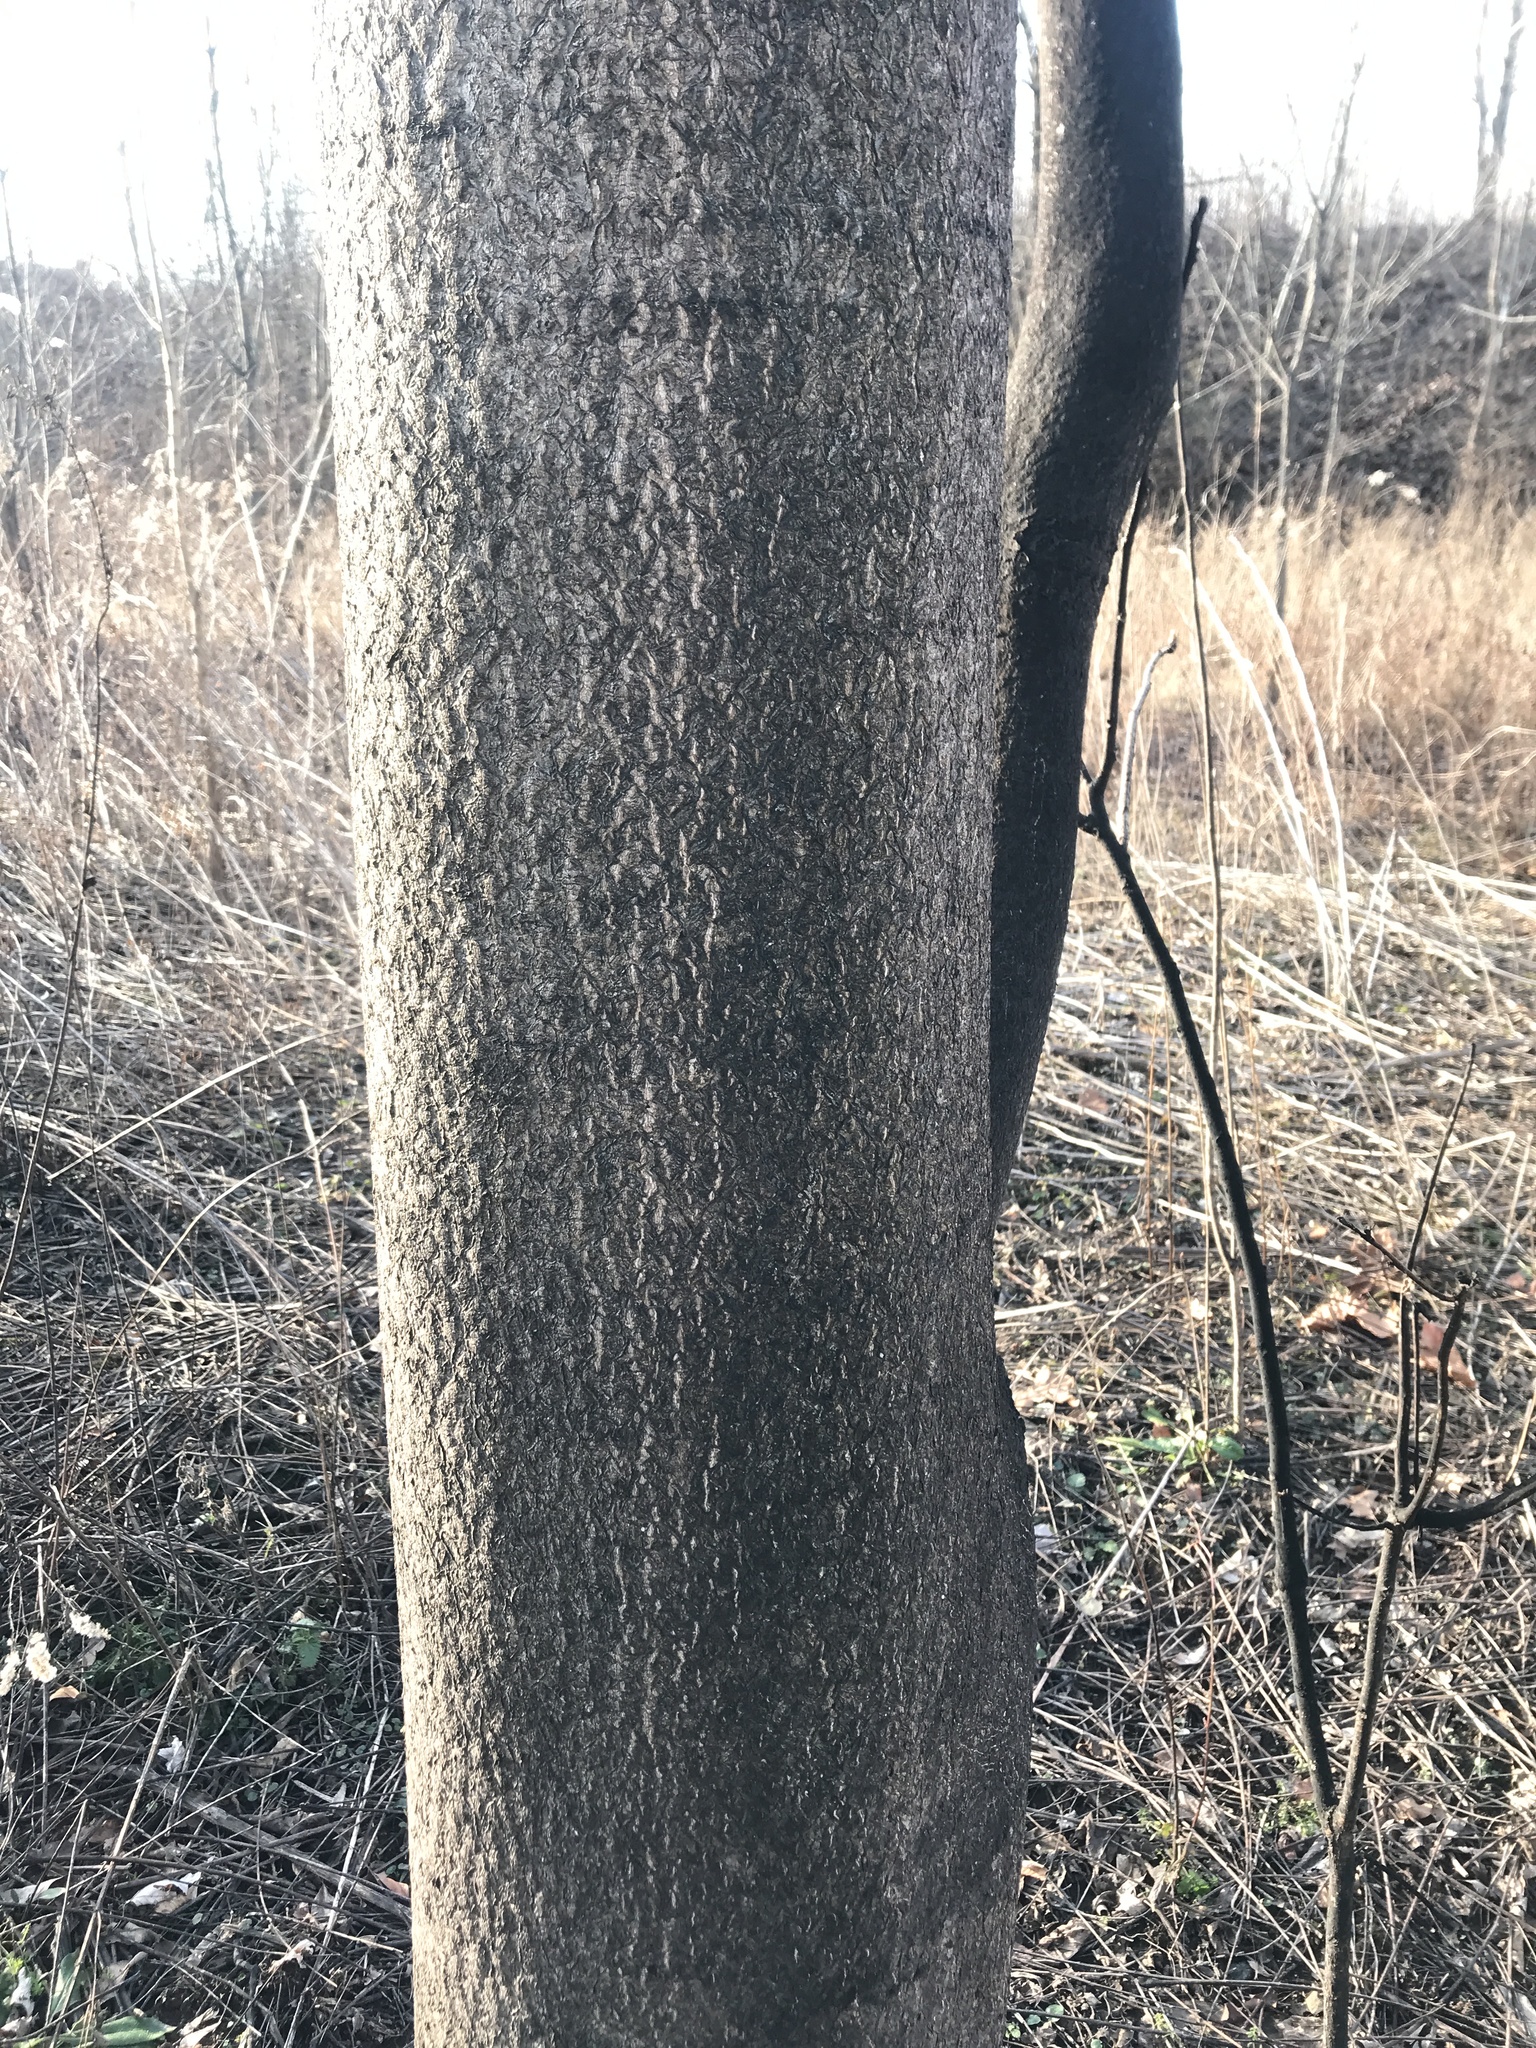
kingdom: Plantae
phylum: Tracheophyta
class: Magnoliopsida
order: Sapindales
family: Simaroubaceae
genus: Ailanthus
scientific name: Ailanthus altissima
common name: Tree-of-heaven
